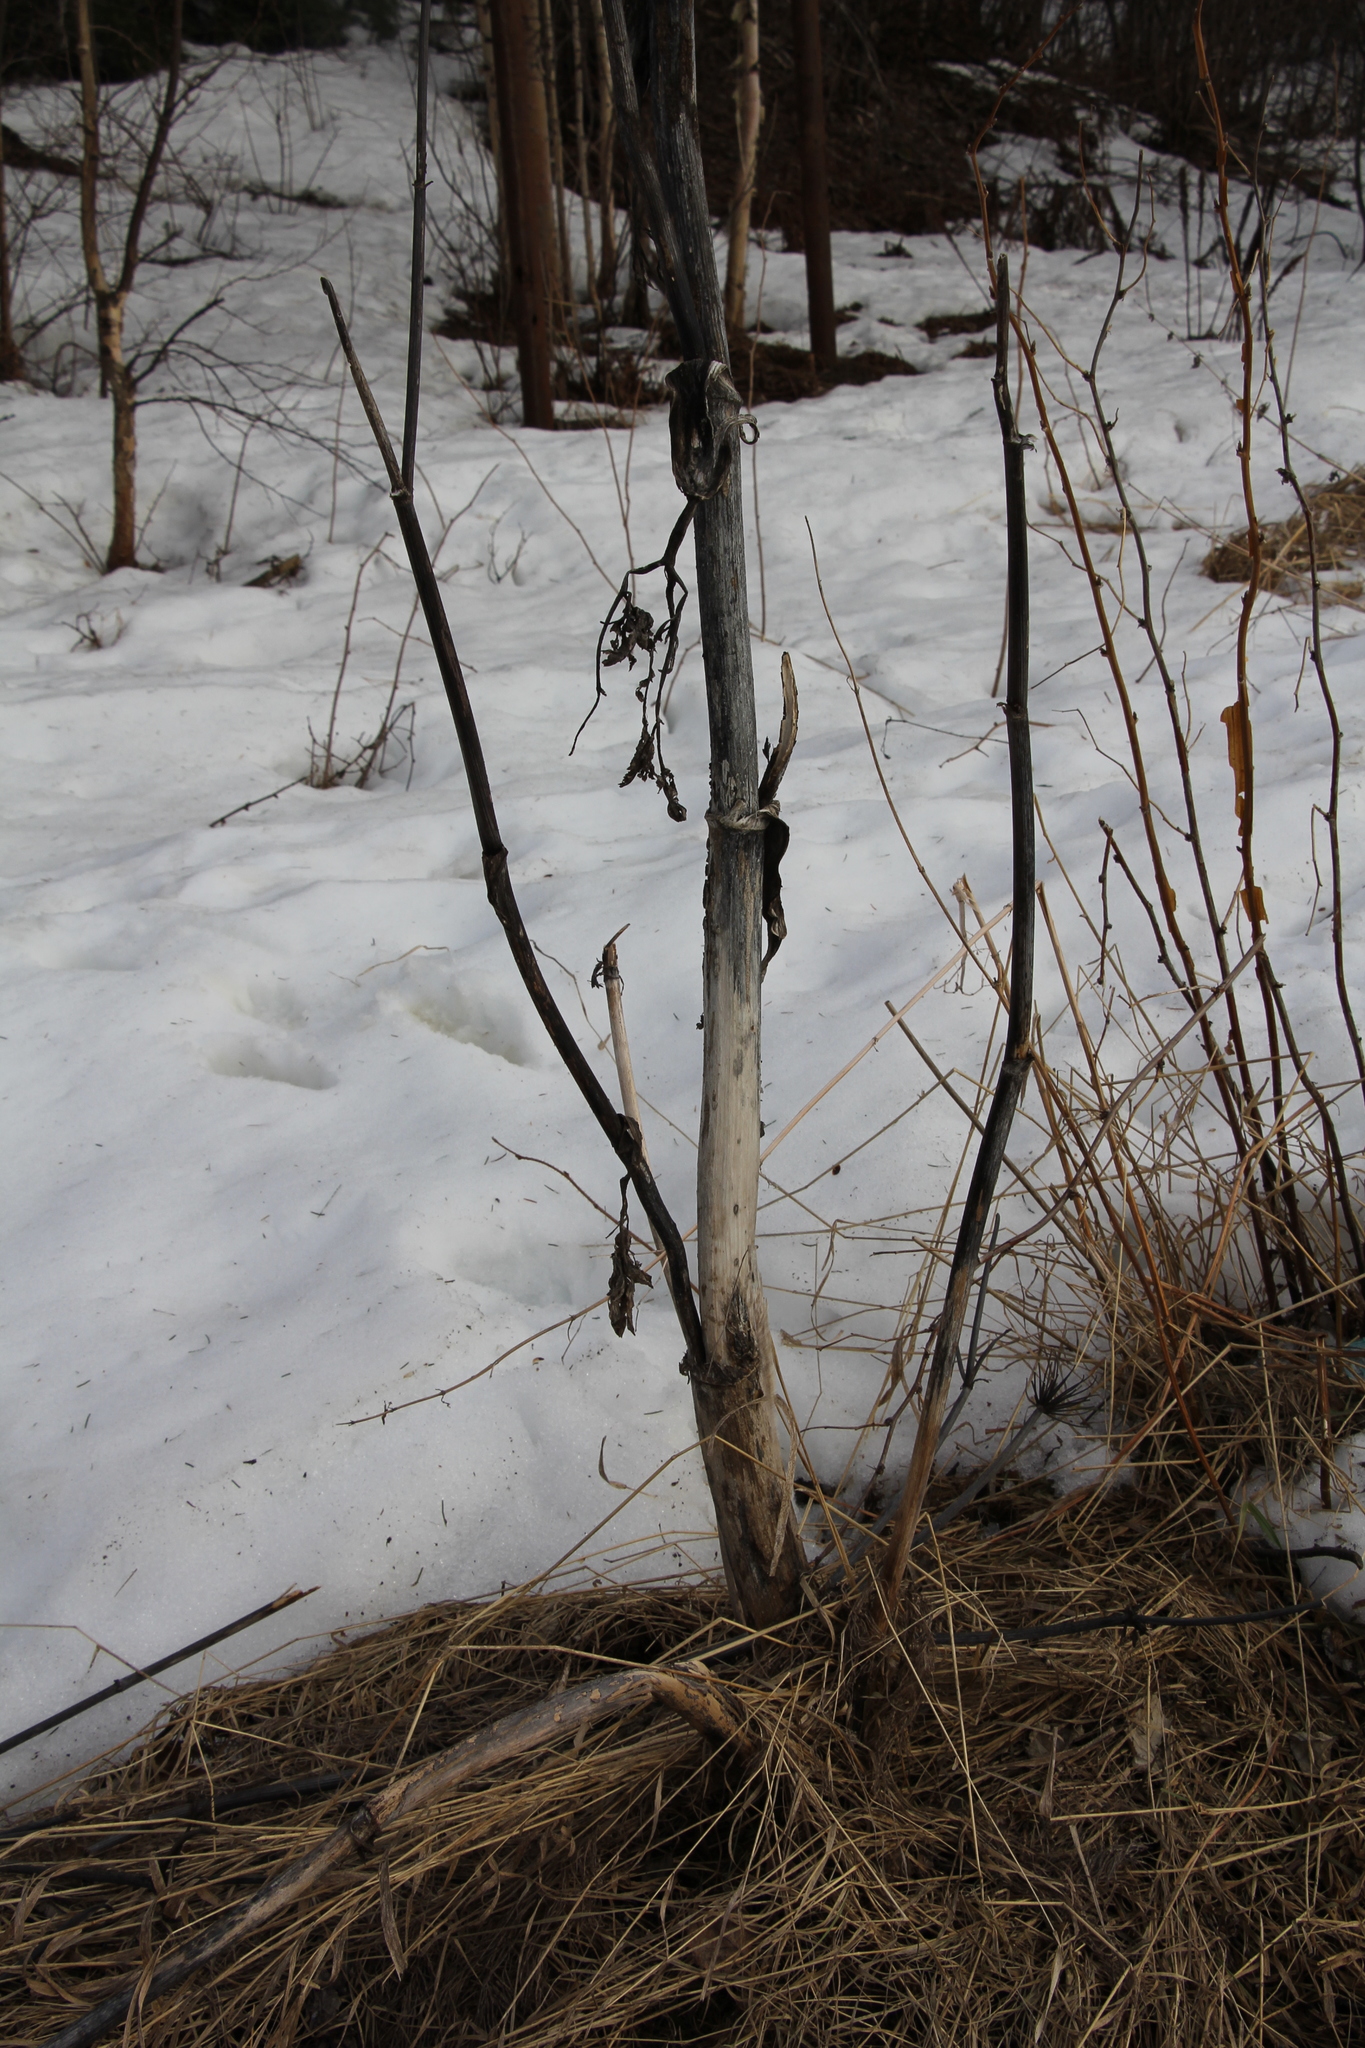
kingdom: Plantae
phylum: Tracheophyta
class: Magnoliopsida
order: Apiales
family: Apiaceae
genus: Heracleum
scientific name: Heracleum sosnowskyi
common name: Sosnowsky's hogweed
